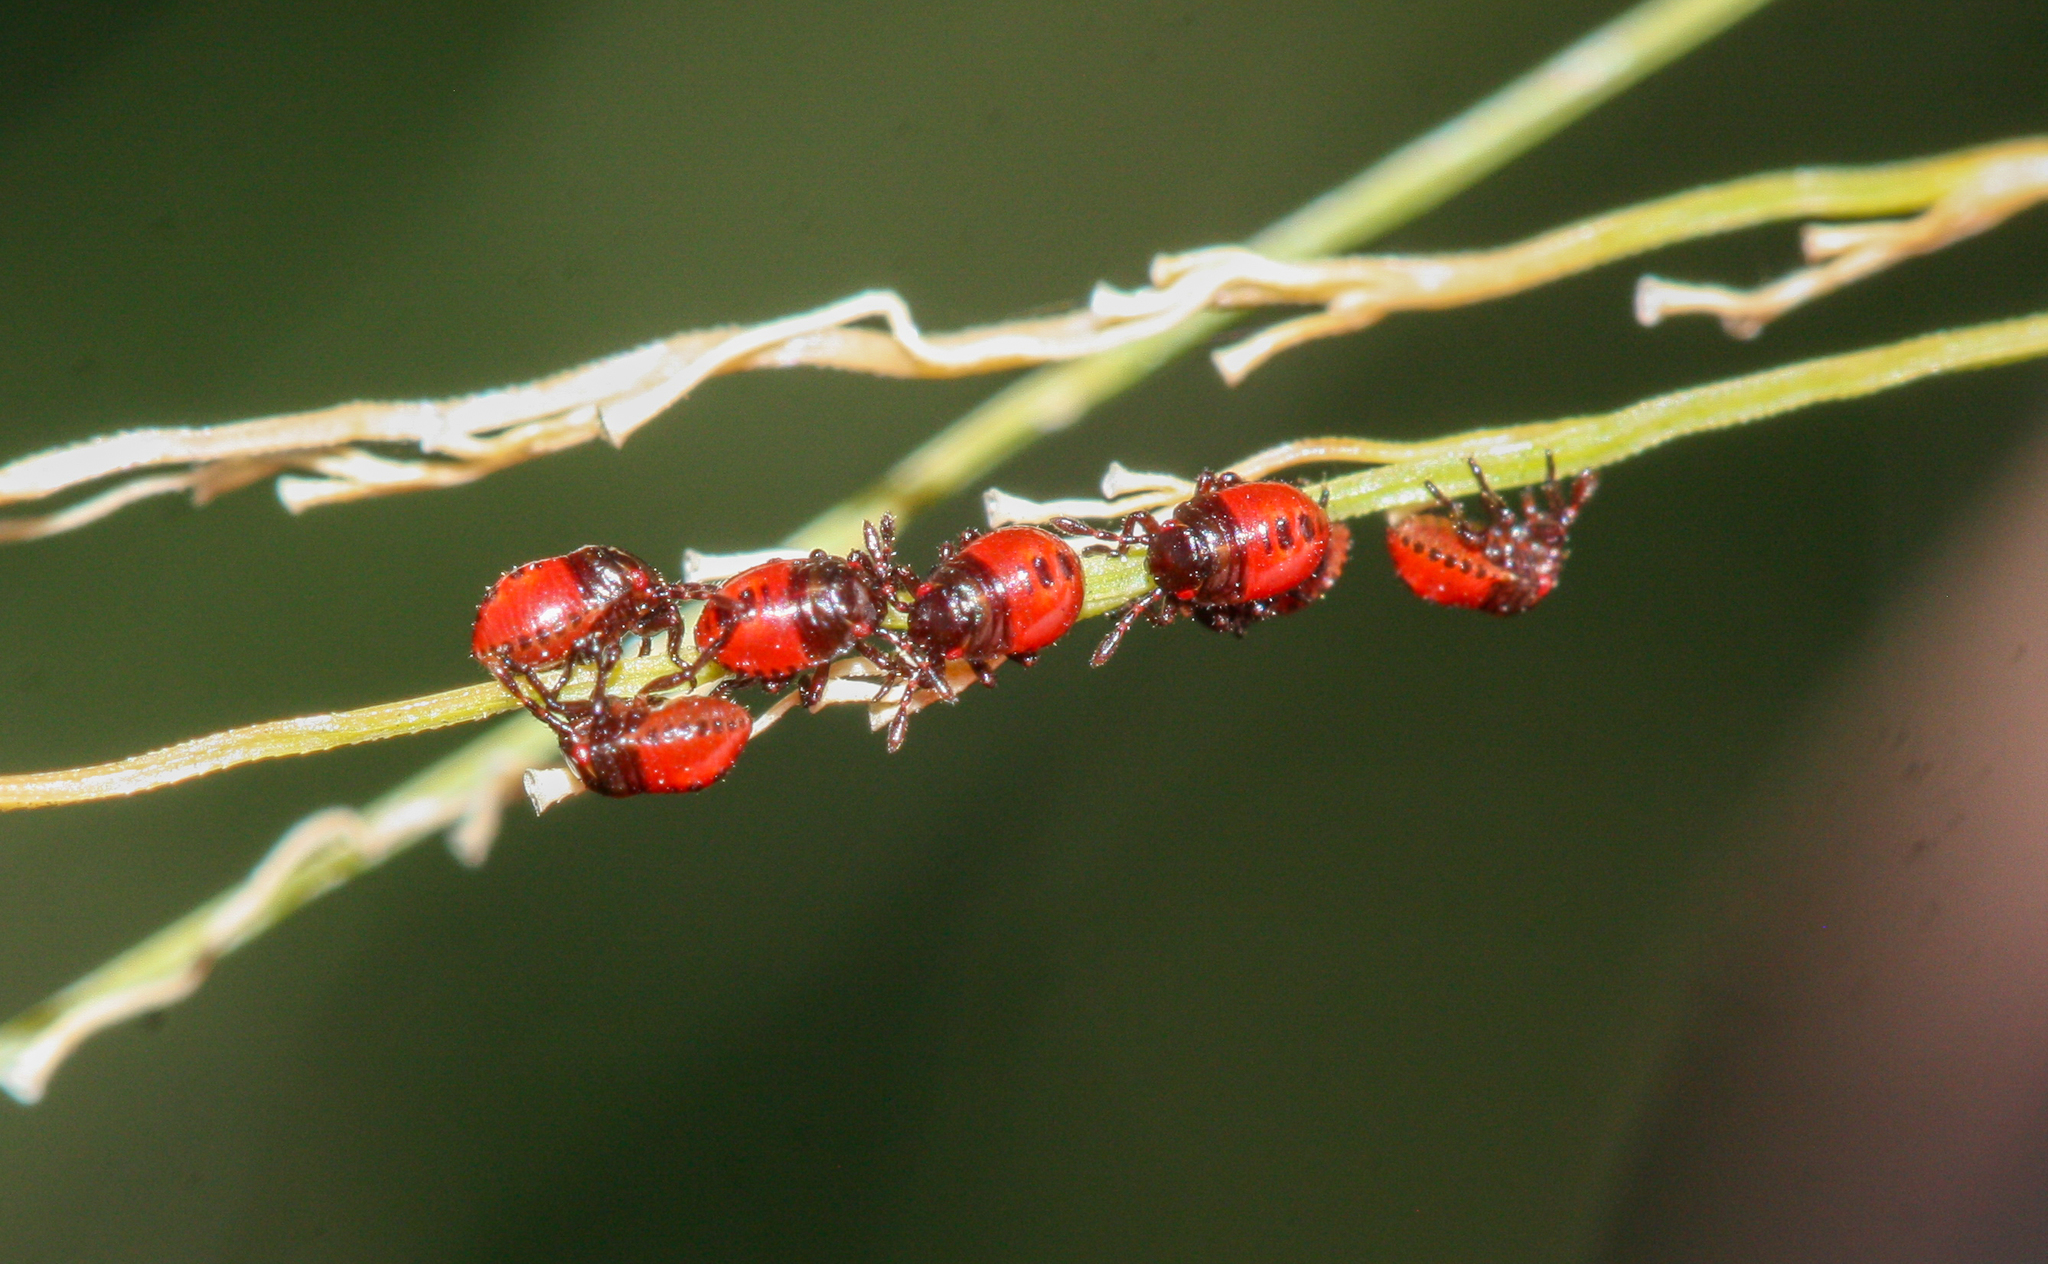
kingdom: Animalia
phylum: Arthropoda
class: Insecta
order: Hemiptera
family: Pentatomidae
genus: Oebalus
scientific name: Oebalus pugnax
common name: Rice stink bug
